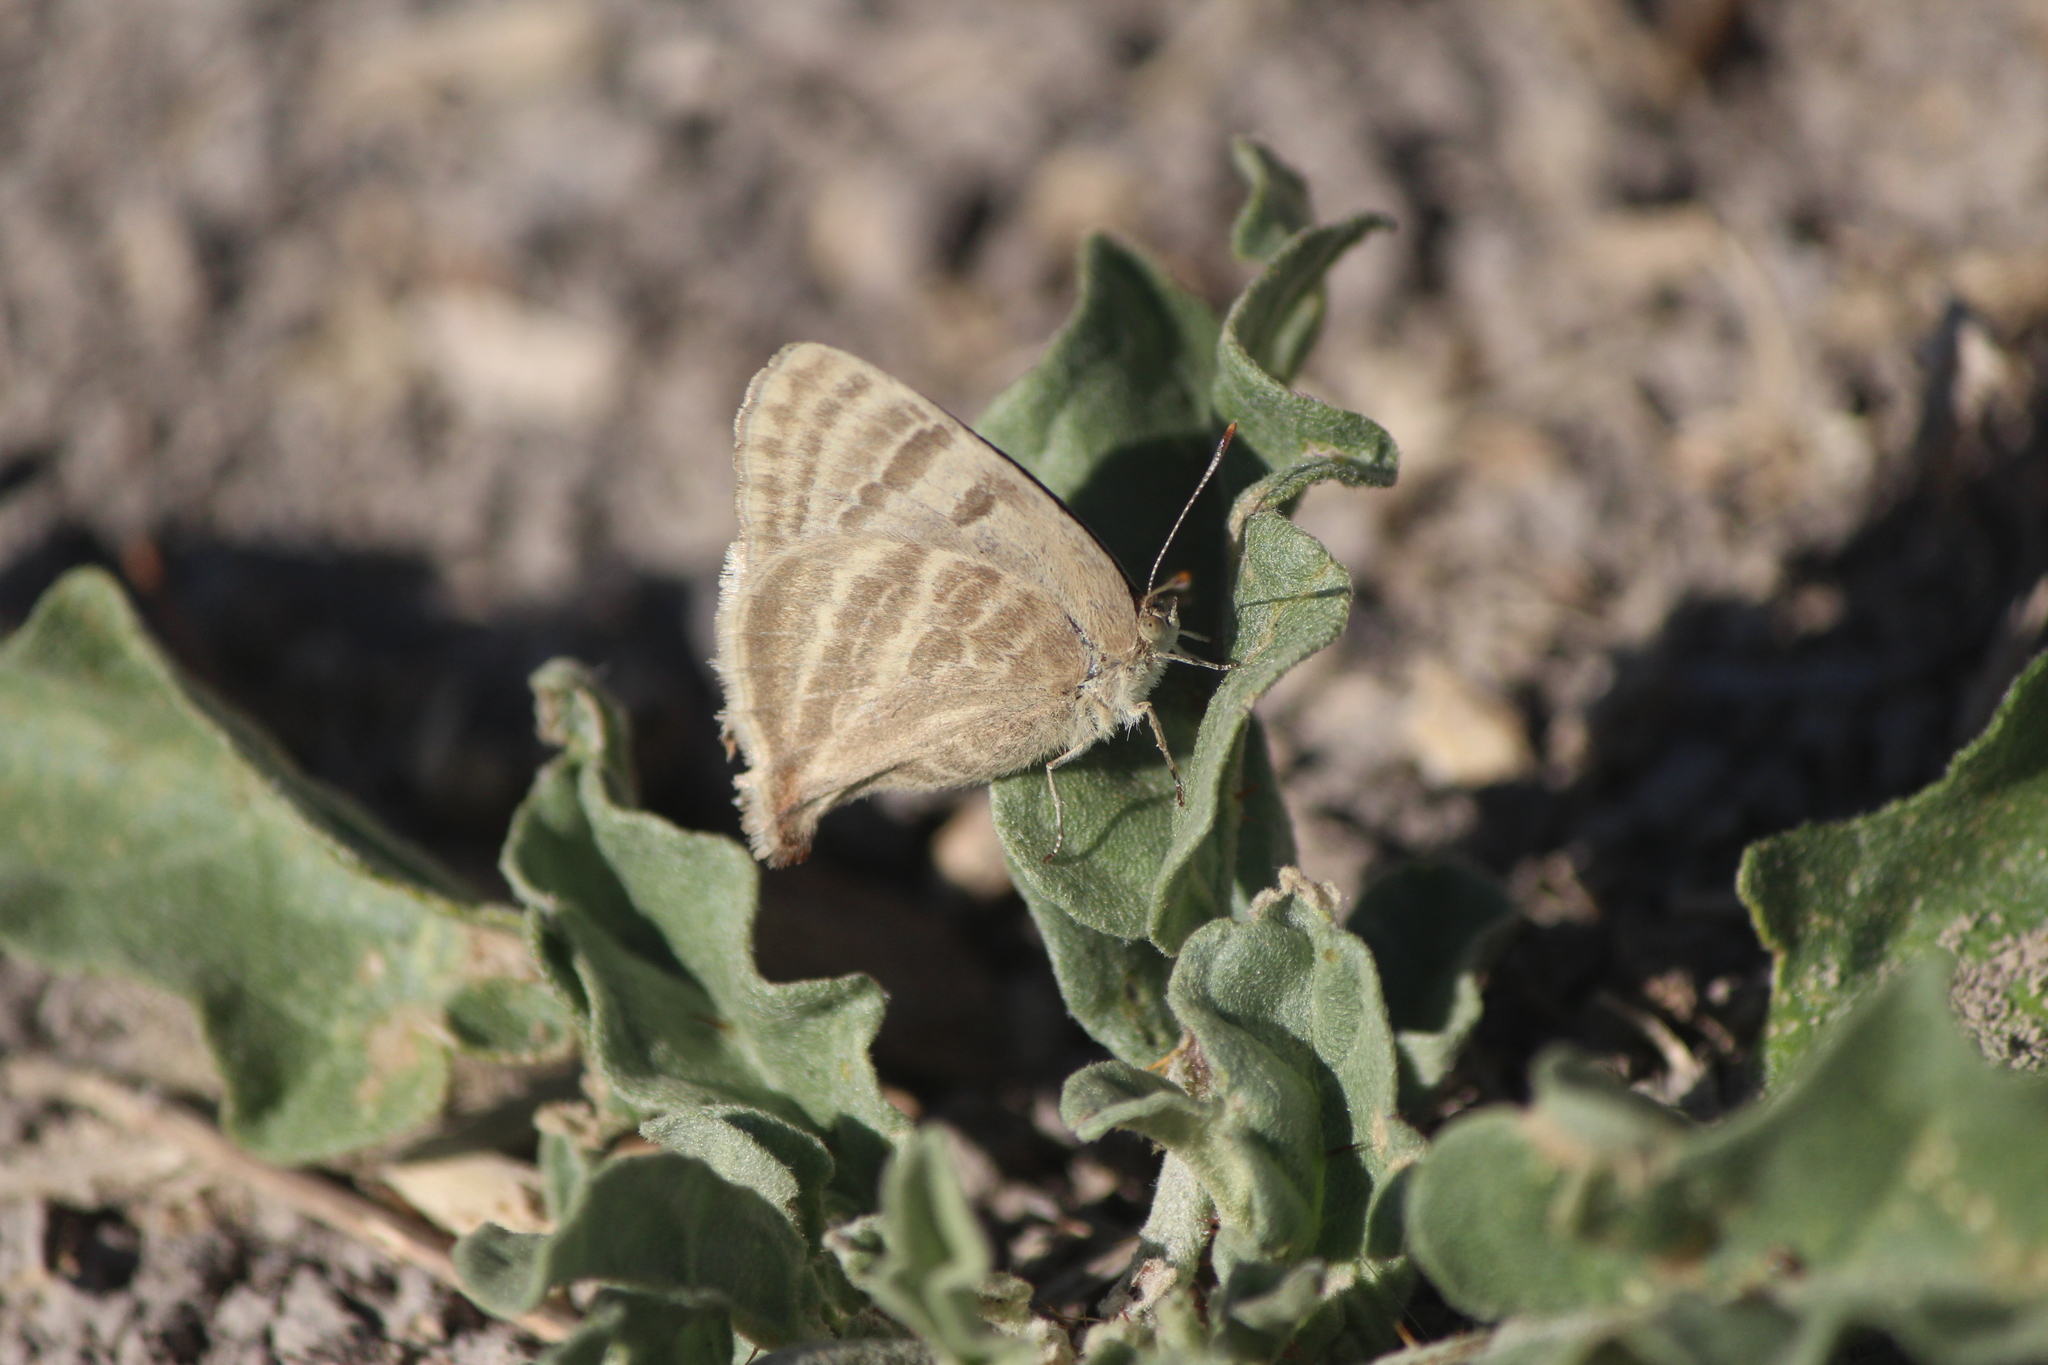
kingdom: Animalia
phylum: Arthropoda
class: Insecta
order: Lepidoptera
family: Lycaenidae
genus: Dolymorpha
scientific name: Dolymorpha jada
